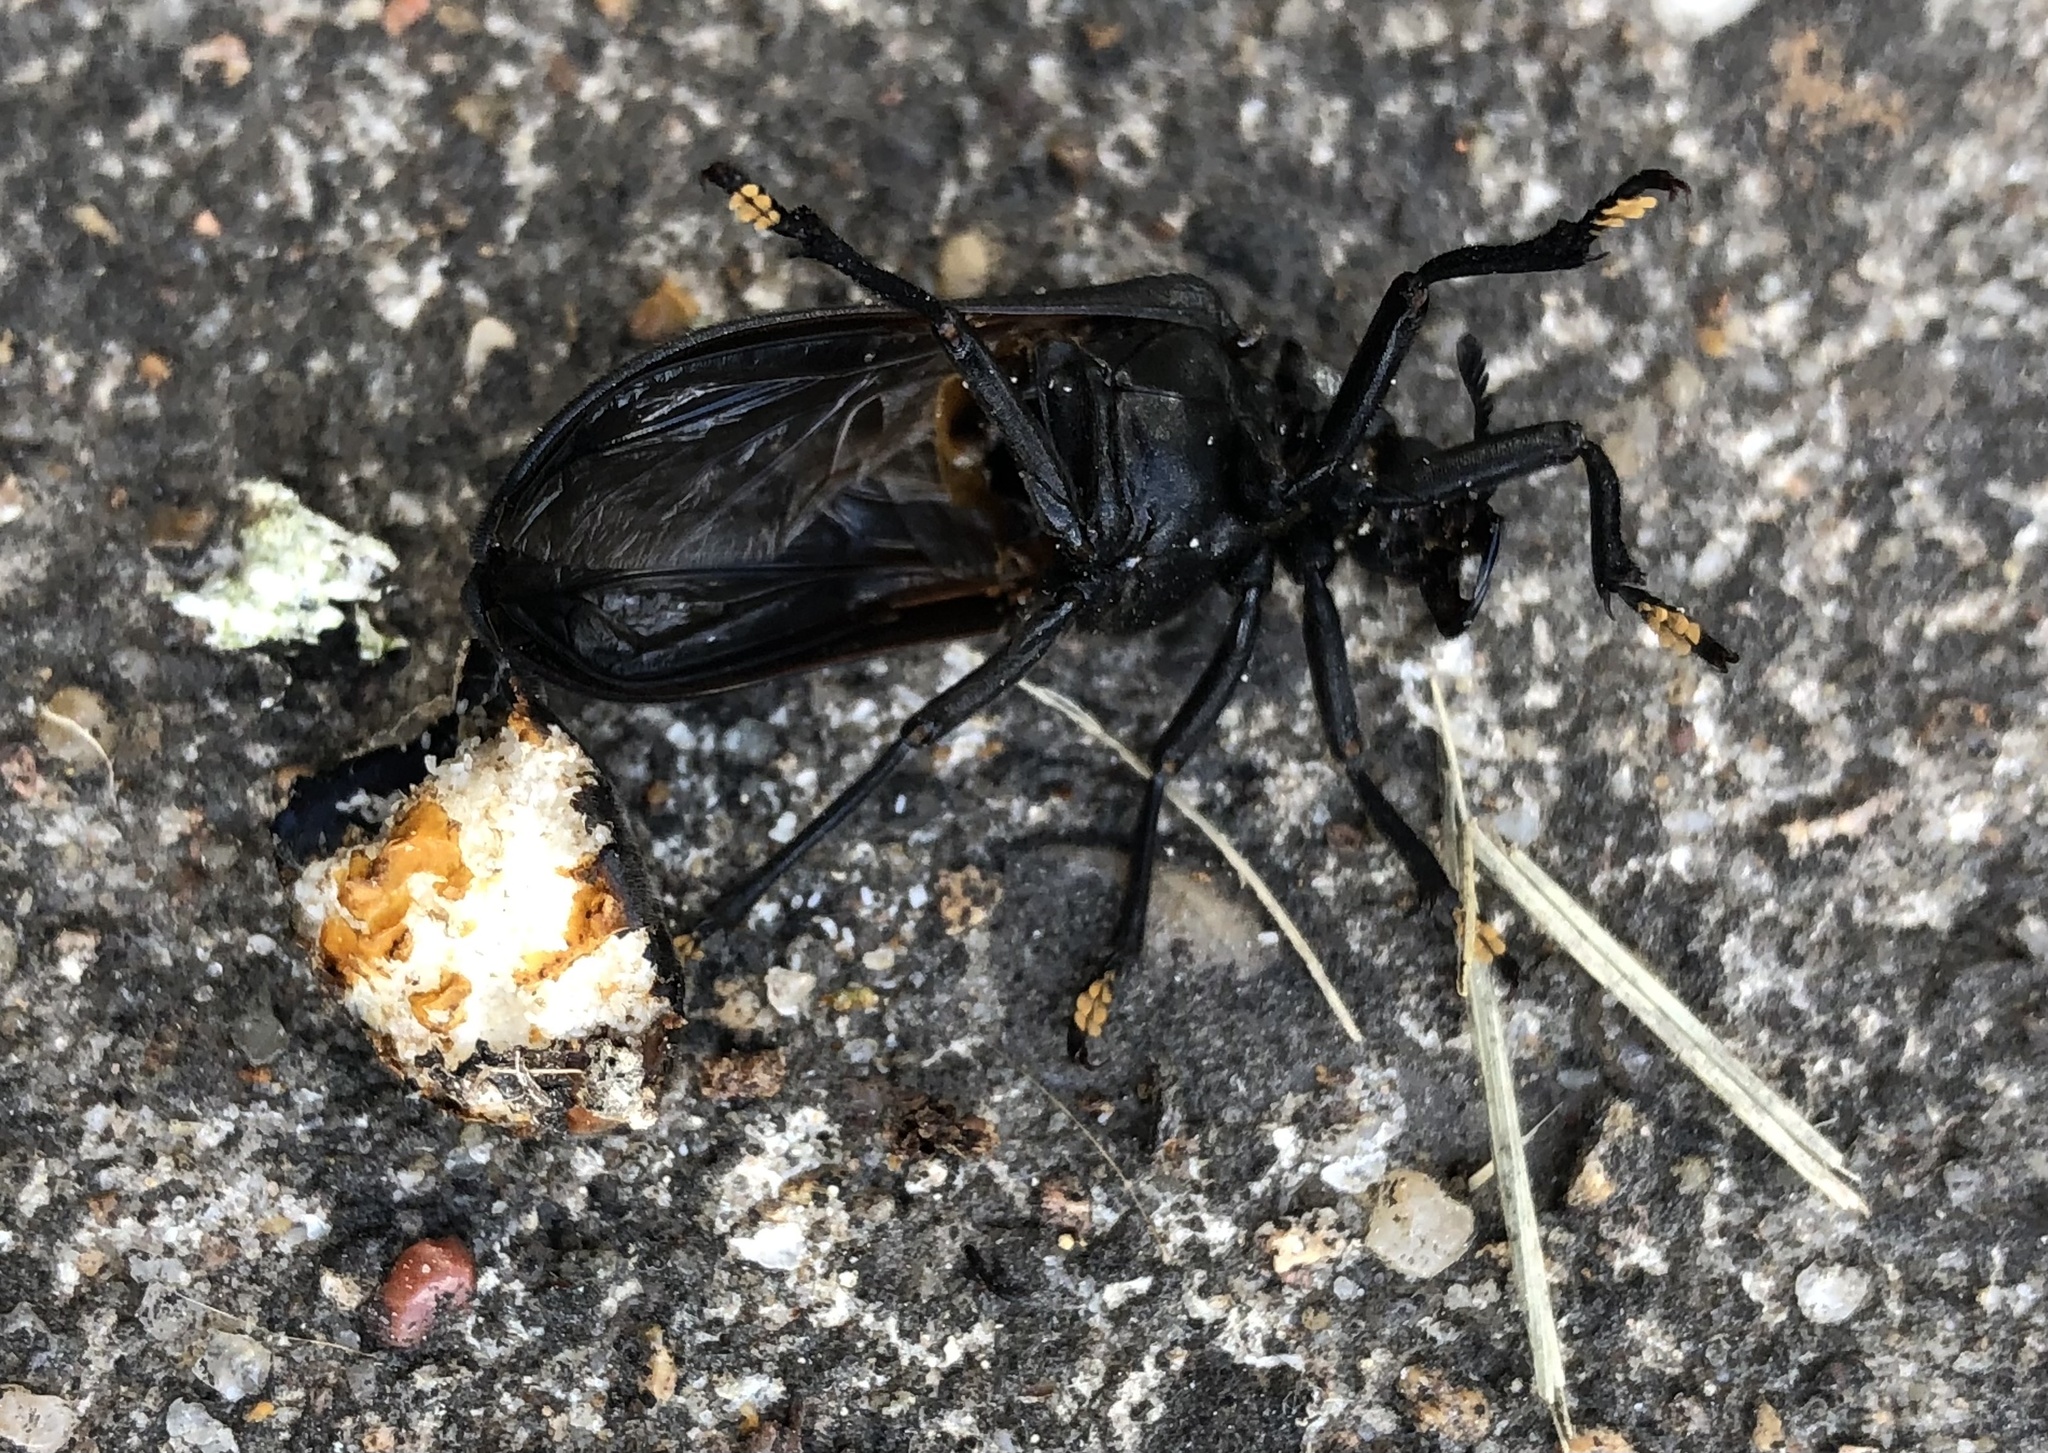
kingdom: Animalia
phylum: Arthropoda
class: Insecta
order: Coleoptera
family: Rhipiceridae
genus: Sandalus
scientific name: Sandalus niger
